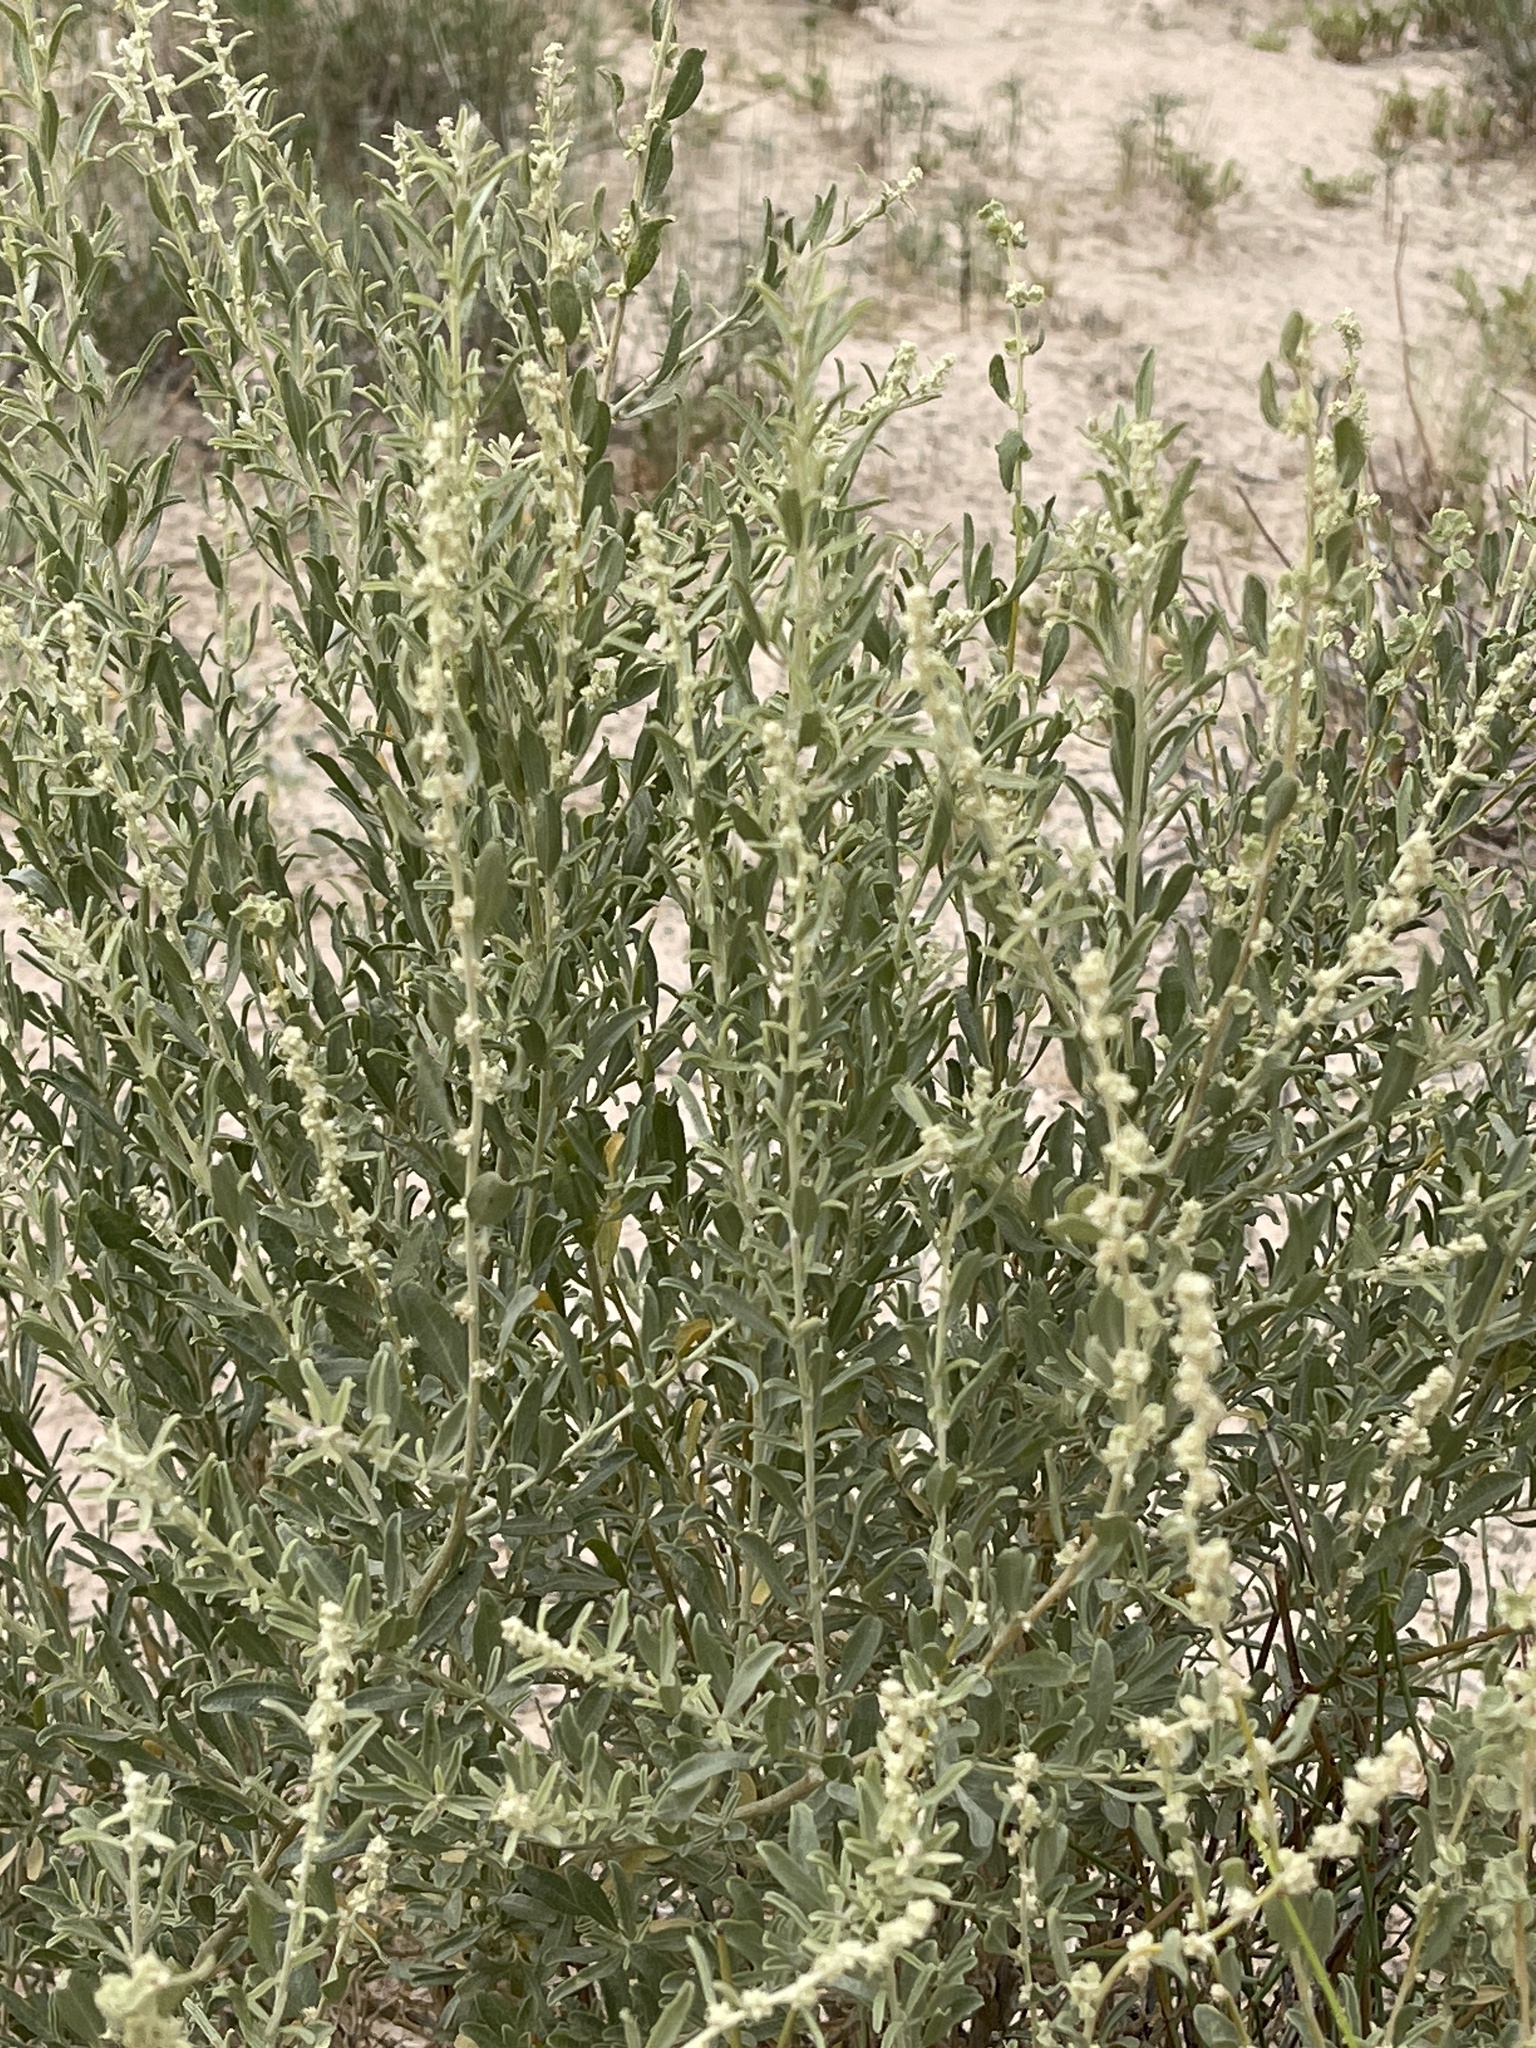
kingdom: Plantae
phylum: Tracheophyta
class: Magnoliopsida
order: Caryophyllales
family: Amaranthaceae
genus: Atriplex
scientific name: Atriplex canescens
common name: Four-wing saltbush
